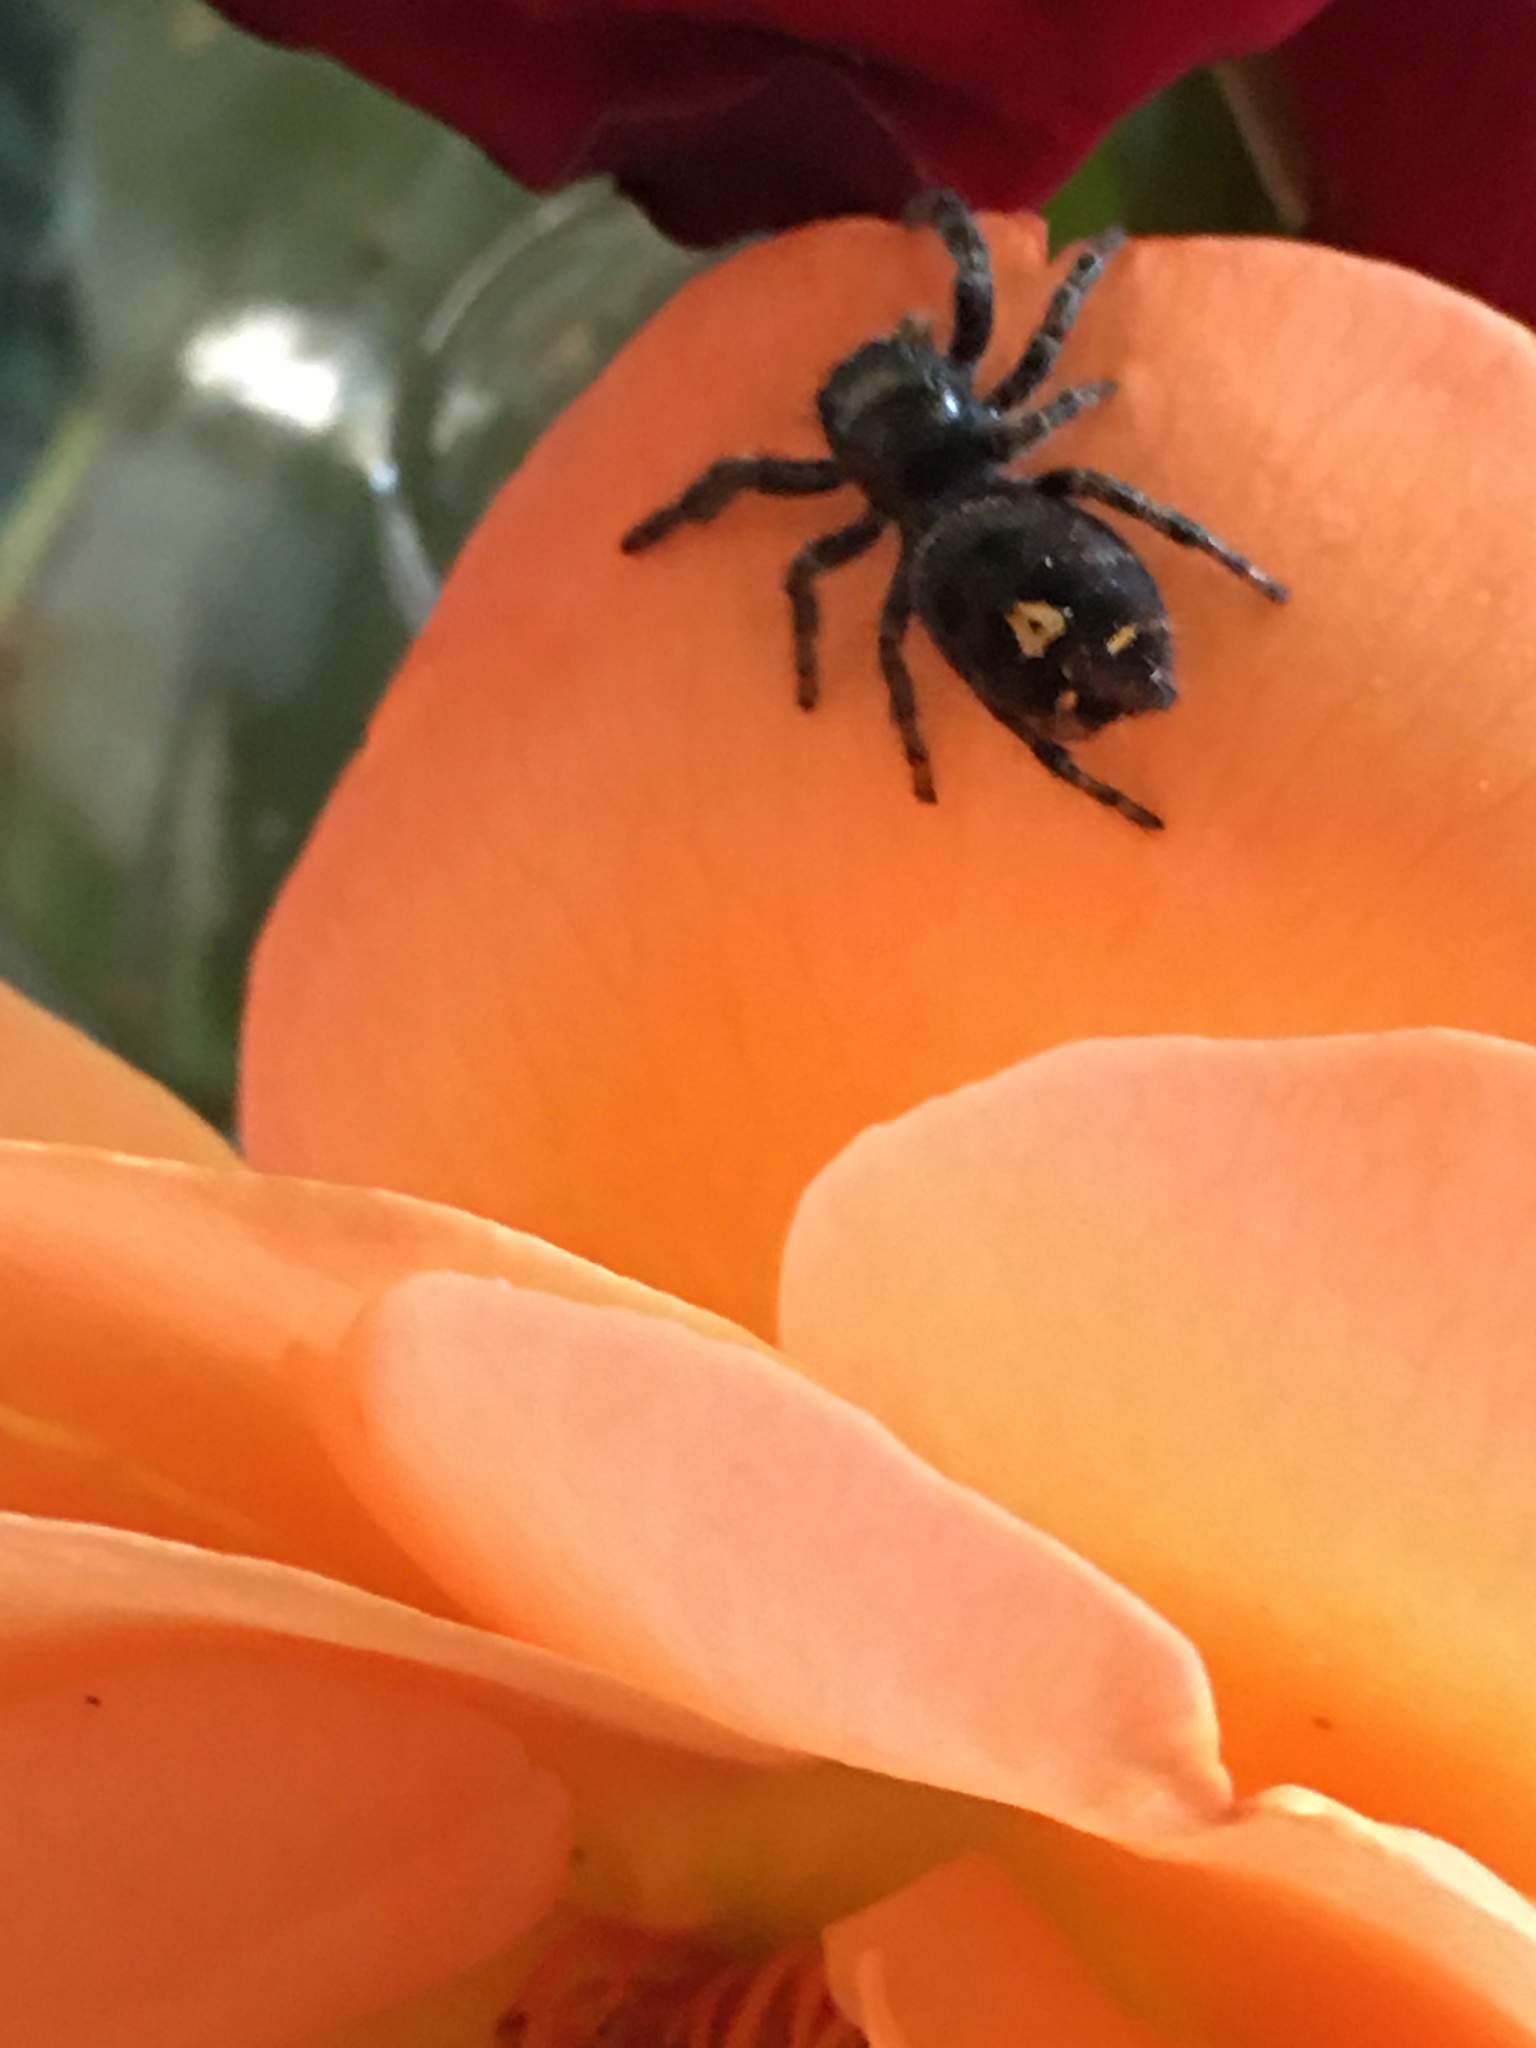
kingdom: Animalia
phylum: Arthropoda
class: Arachnida
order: Araneae
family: Salticidae
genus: Phidippus
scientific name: Phidippus audax
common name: Bold jumper
